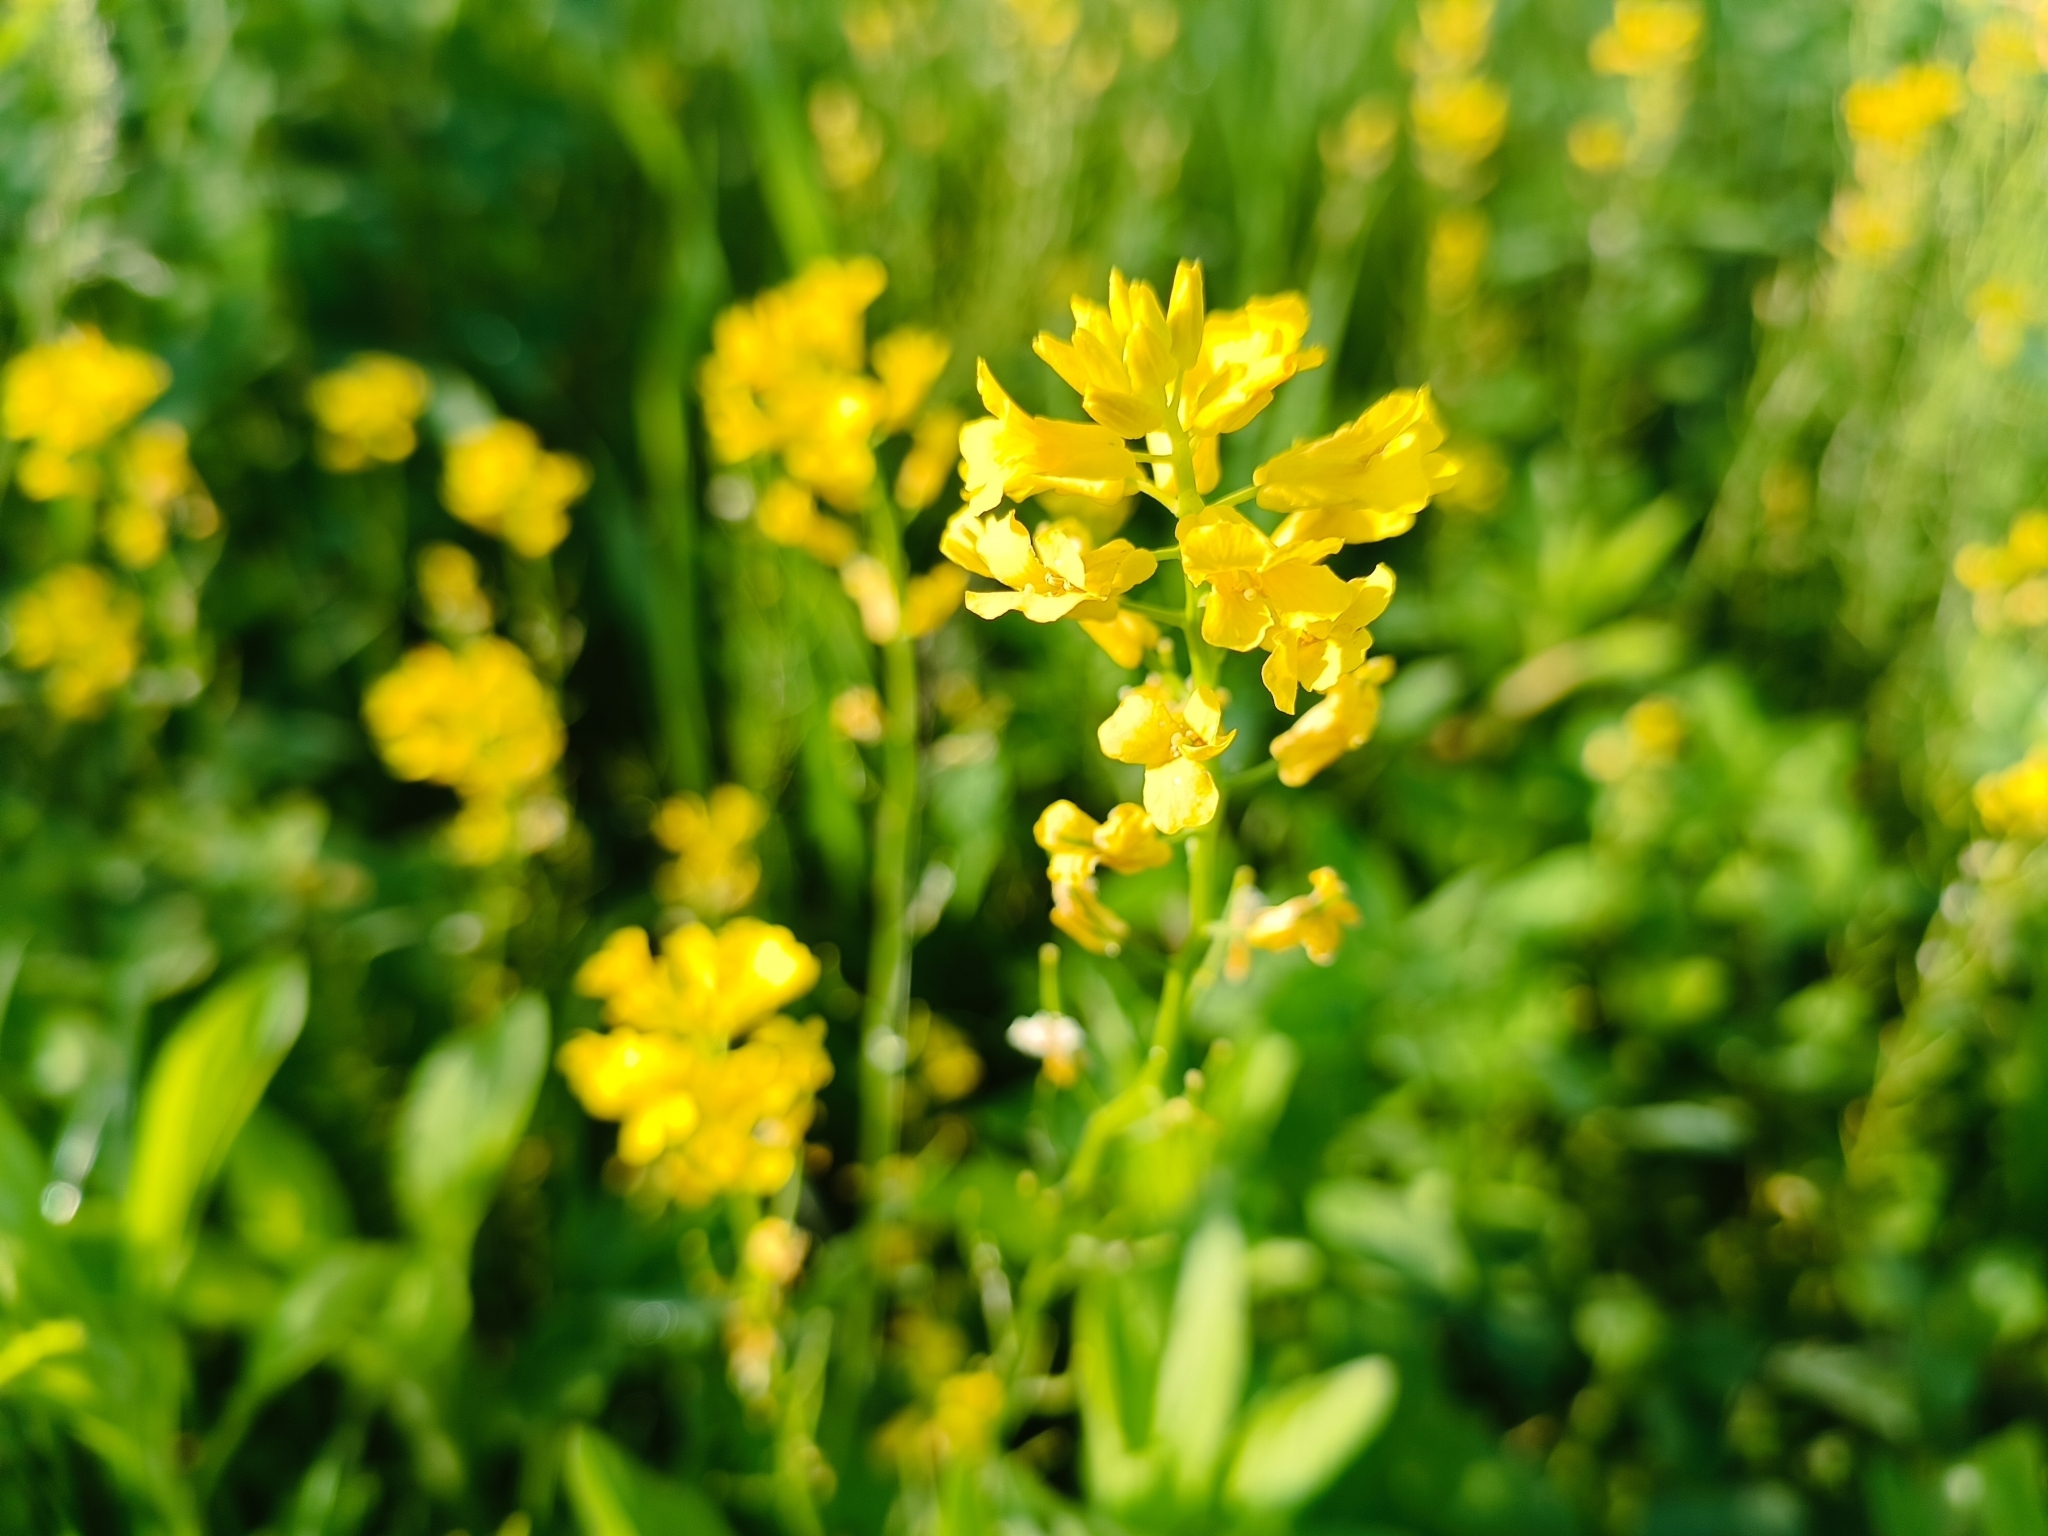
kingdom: Plantae
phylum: Tracheophyta
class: Magnoliopsida
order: Brassicales
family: Brassicaceae
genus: Barbarea
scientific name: Barbarea vulgaris
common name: Cressy-greens
